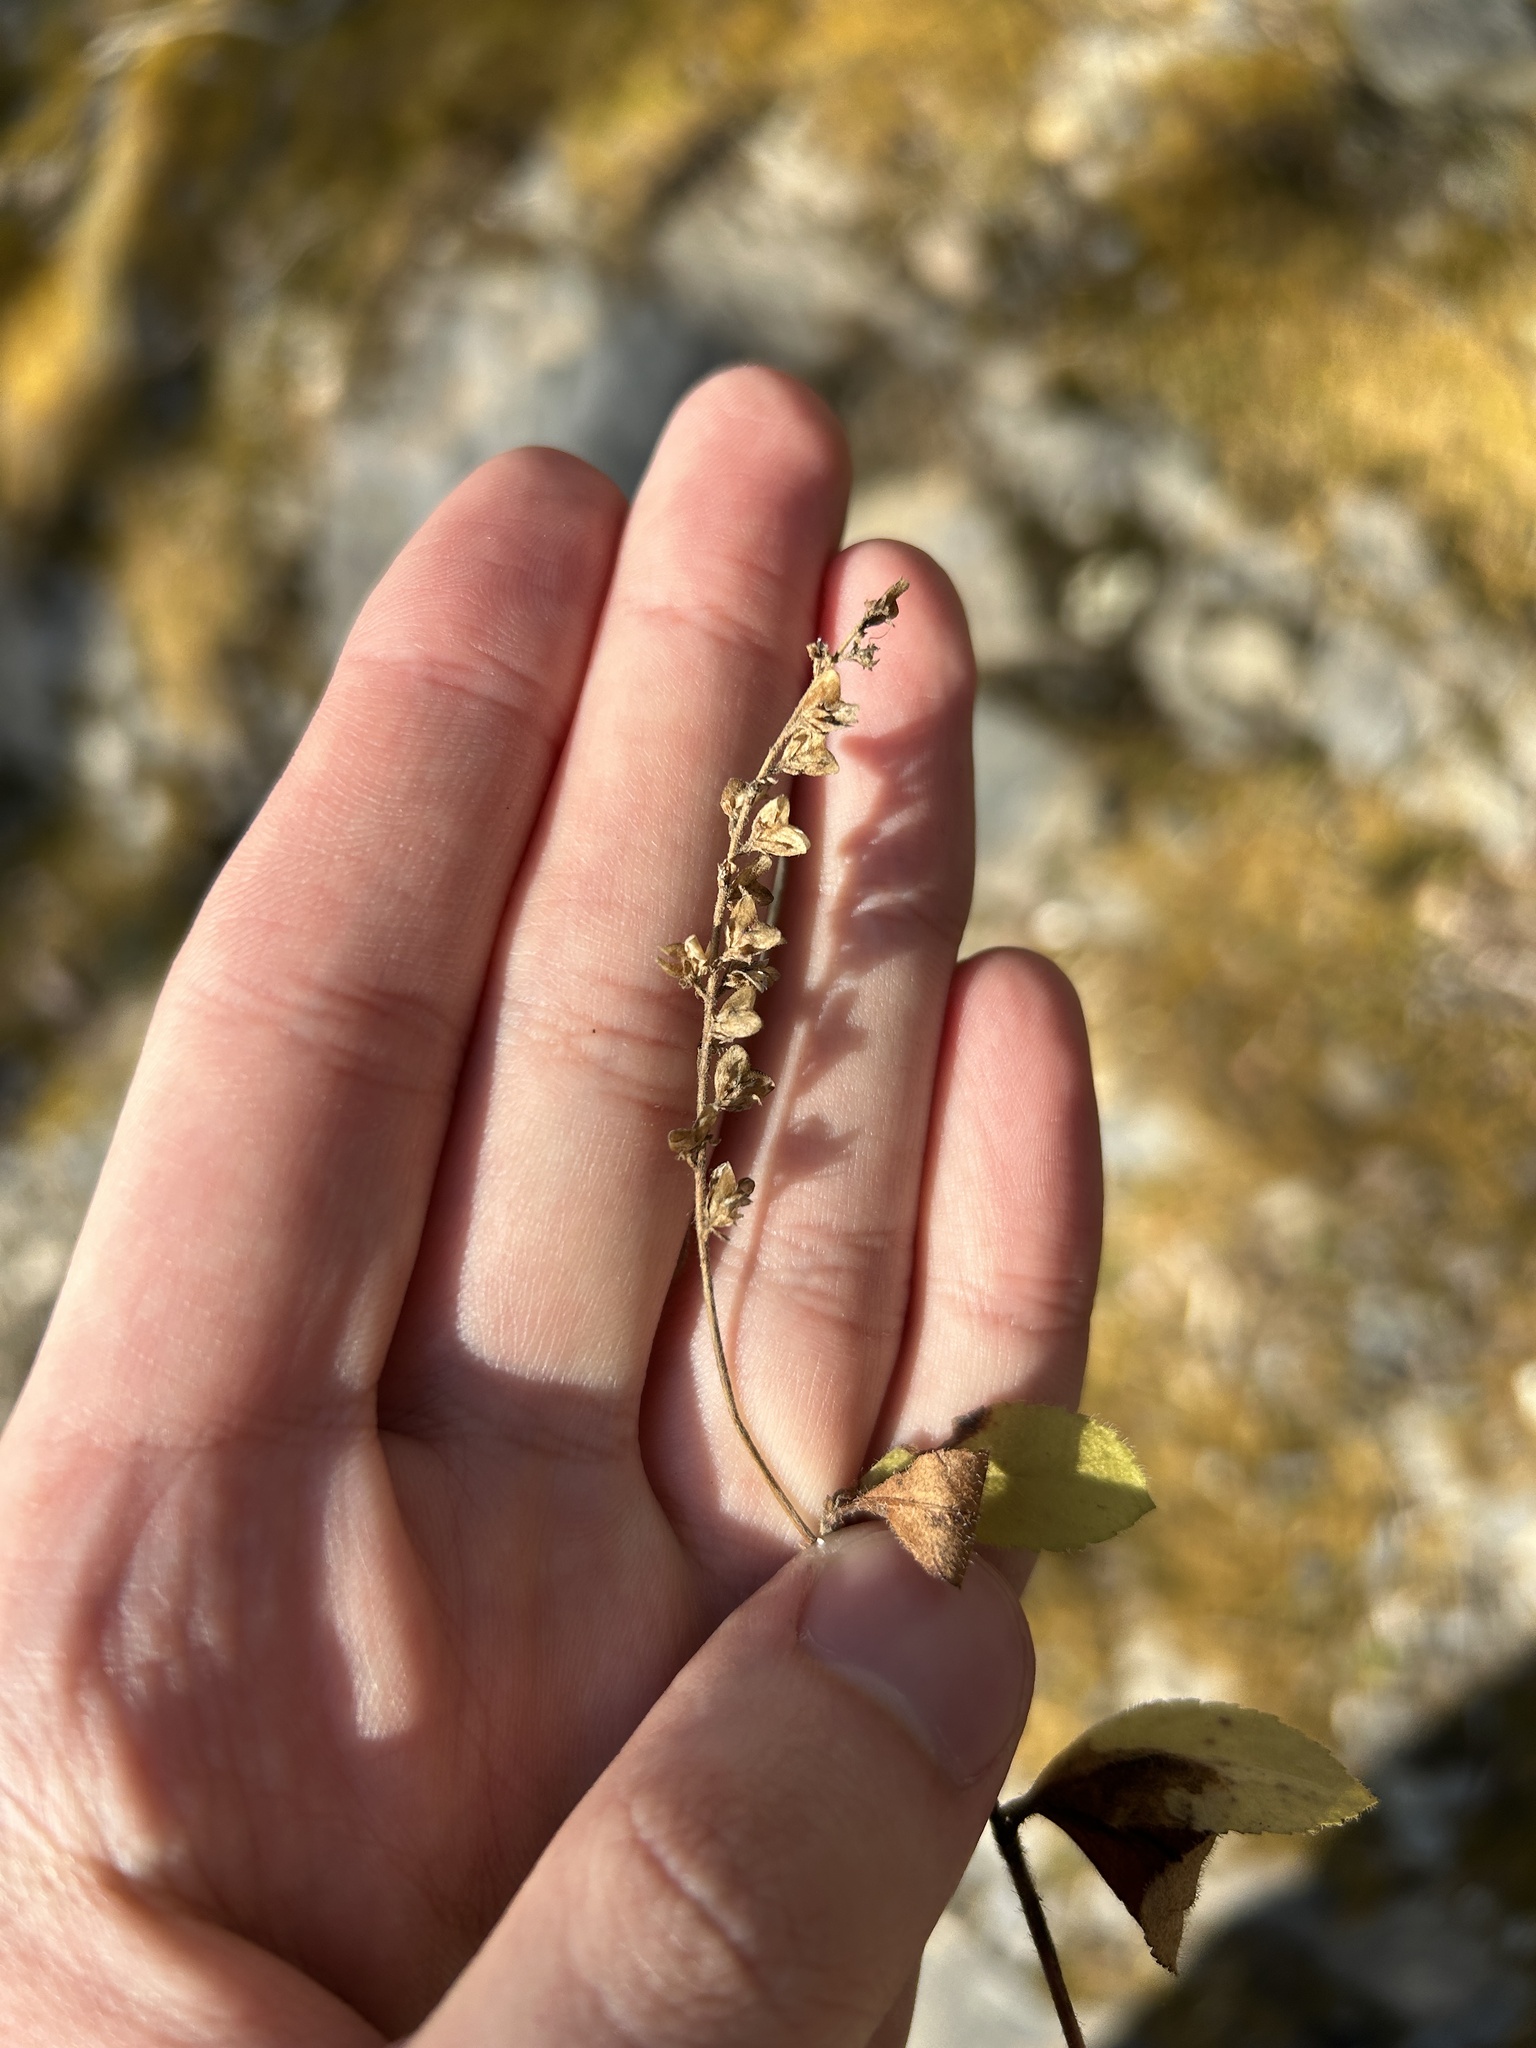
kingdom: Plantae
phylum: Tracheophyta
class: Magnoliopsida
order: Lamiales
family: Plantaginaceae
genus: Veronica
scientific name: Veronica officinalis
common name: Common speedwell
